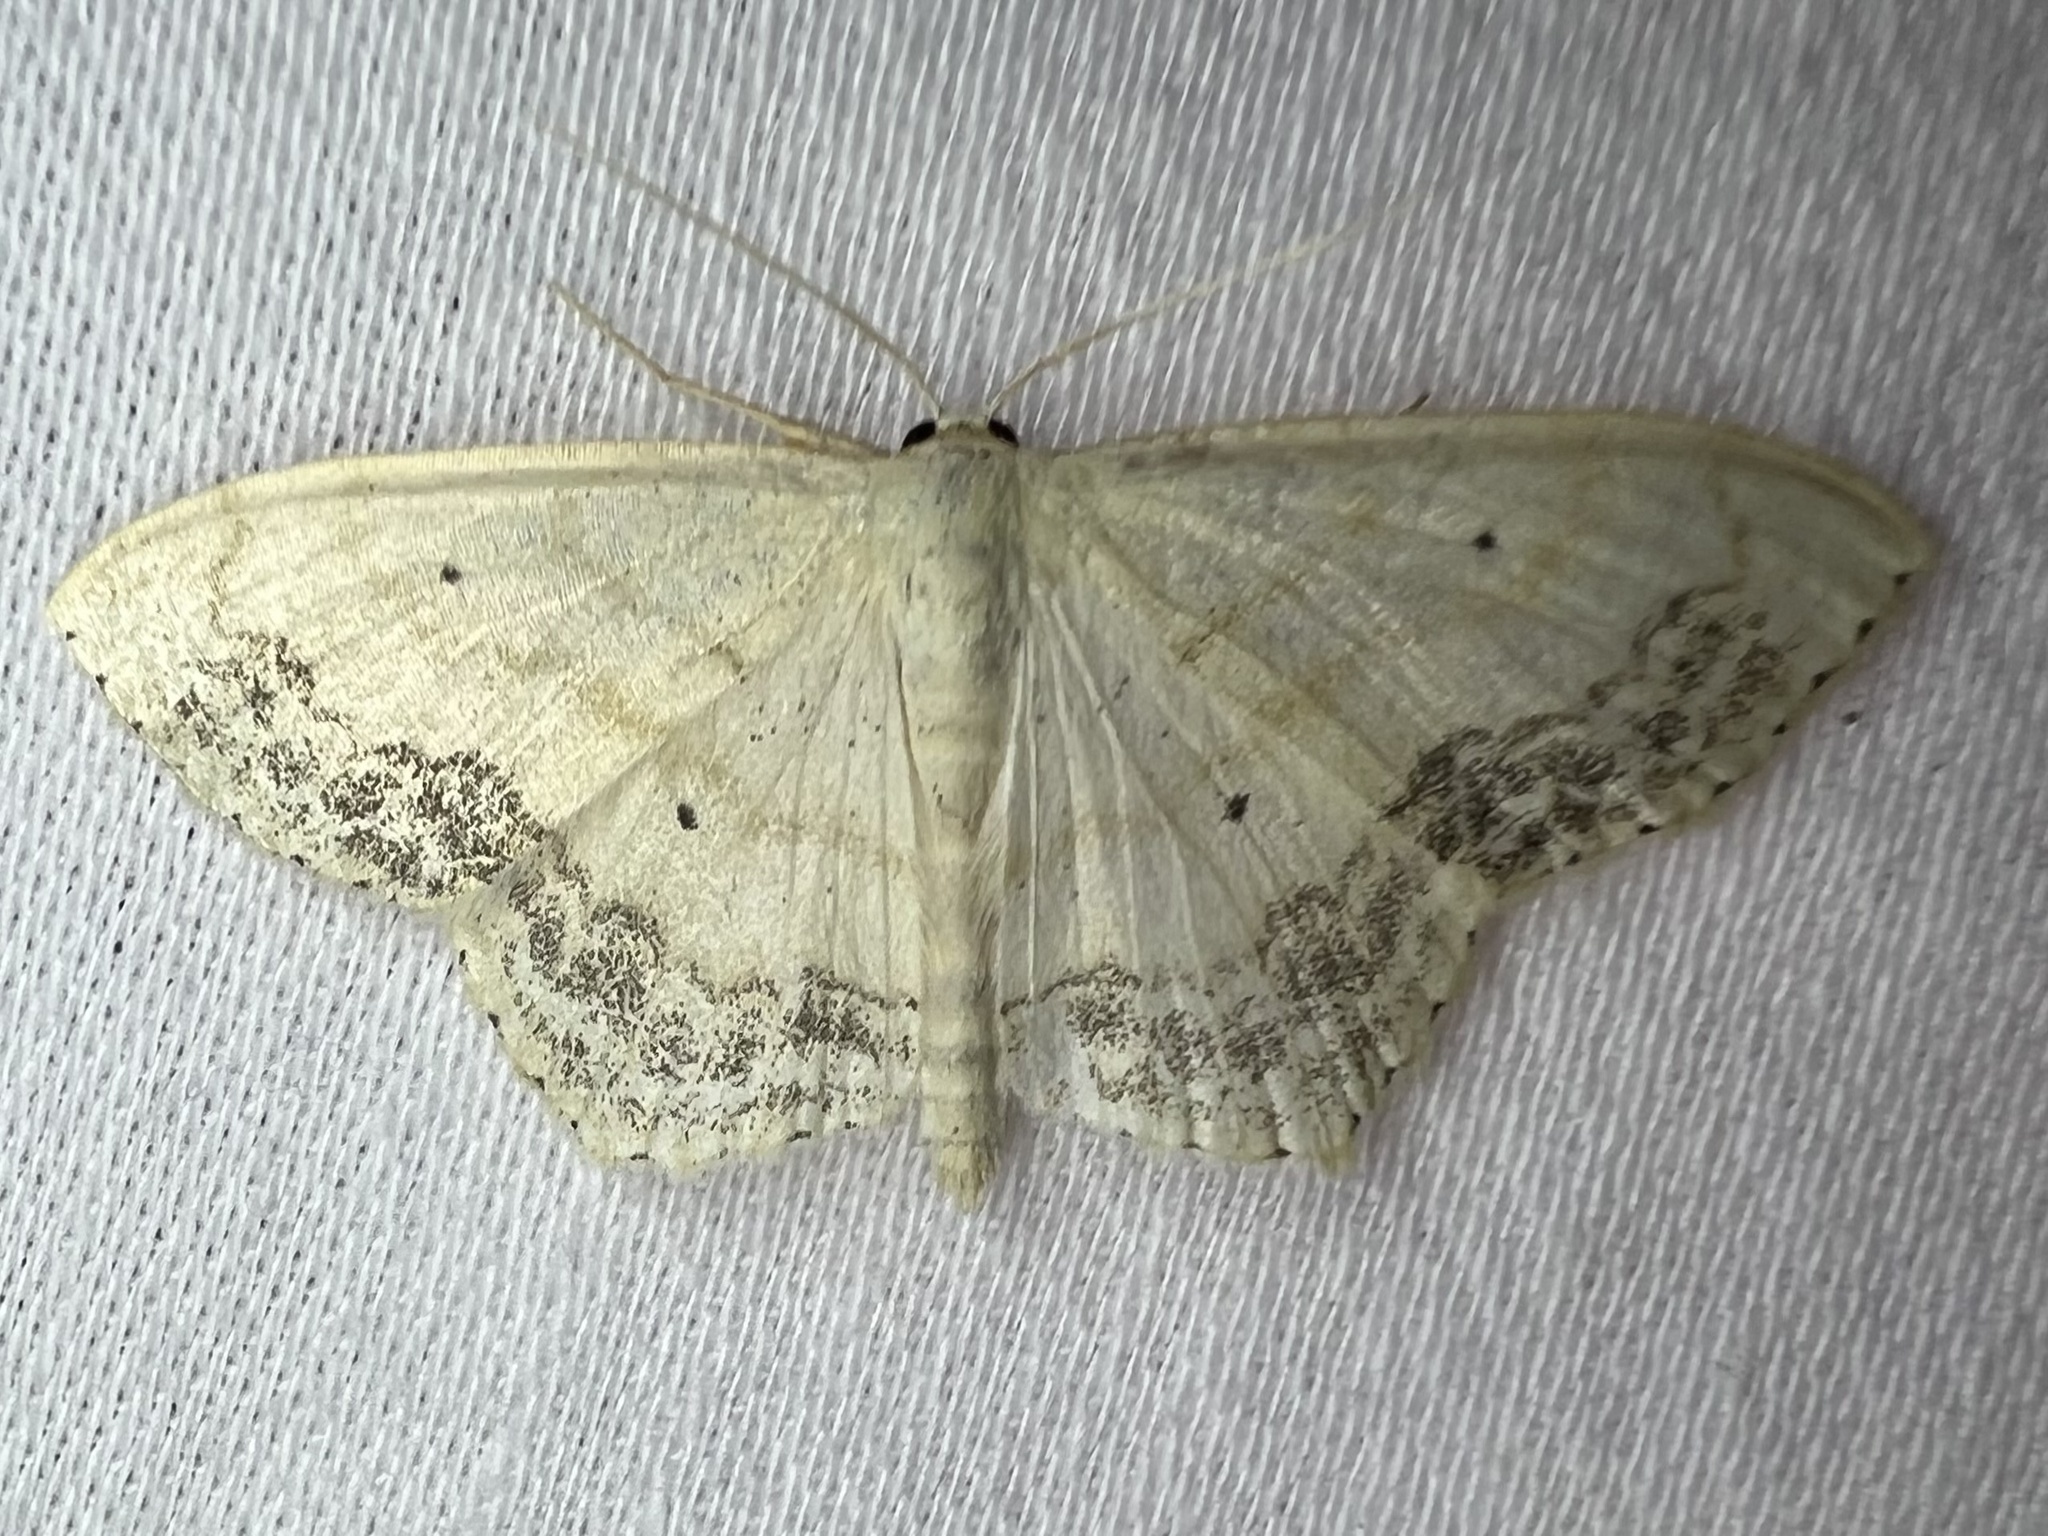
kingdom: Animalia
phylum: Arthropoda
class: Insecta
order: Lepidoptera
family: Geometridae
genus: Scopula
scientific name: Scopula limboundata
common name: Large lace border
